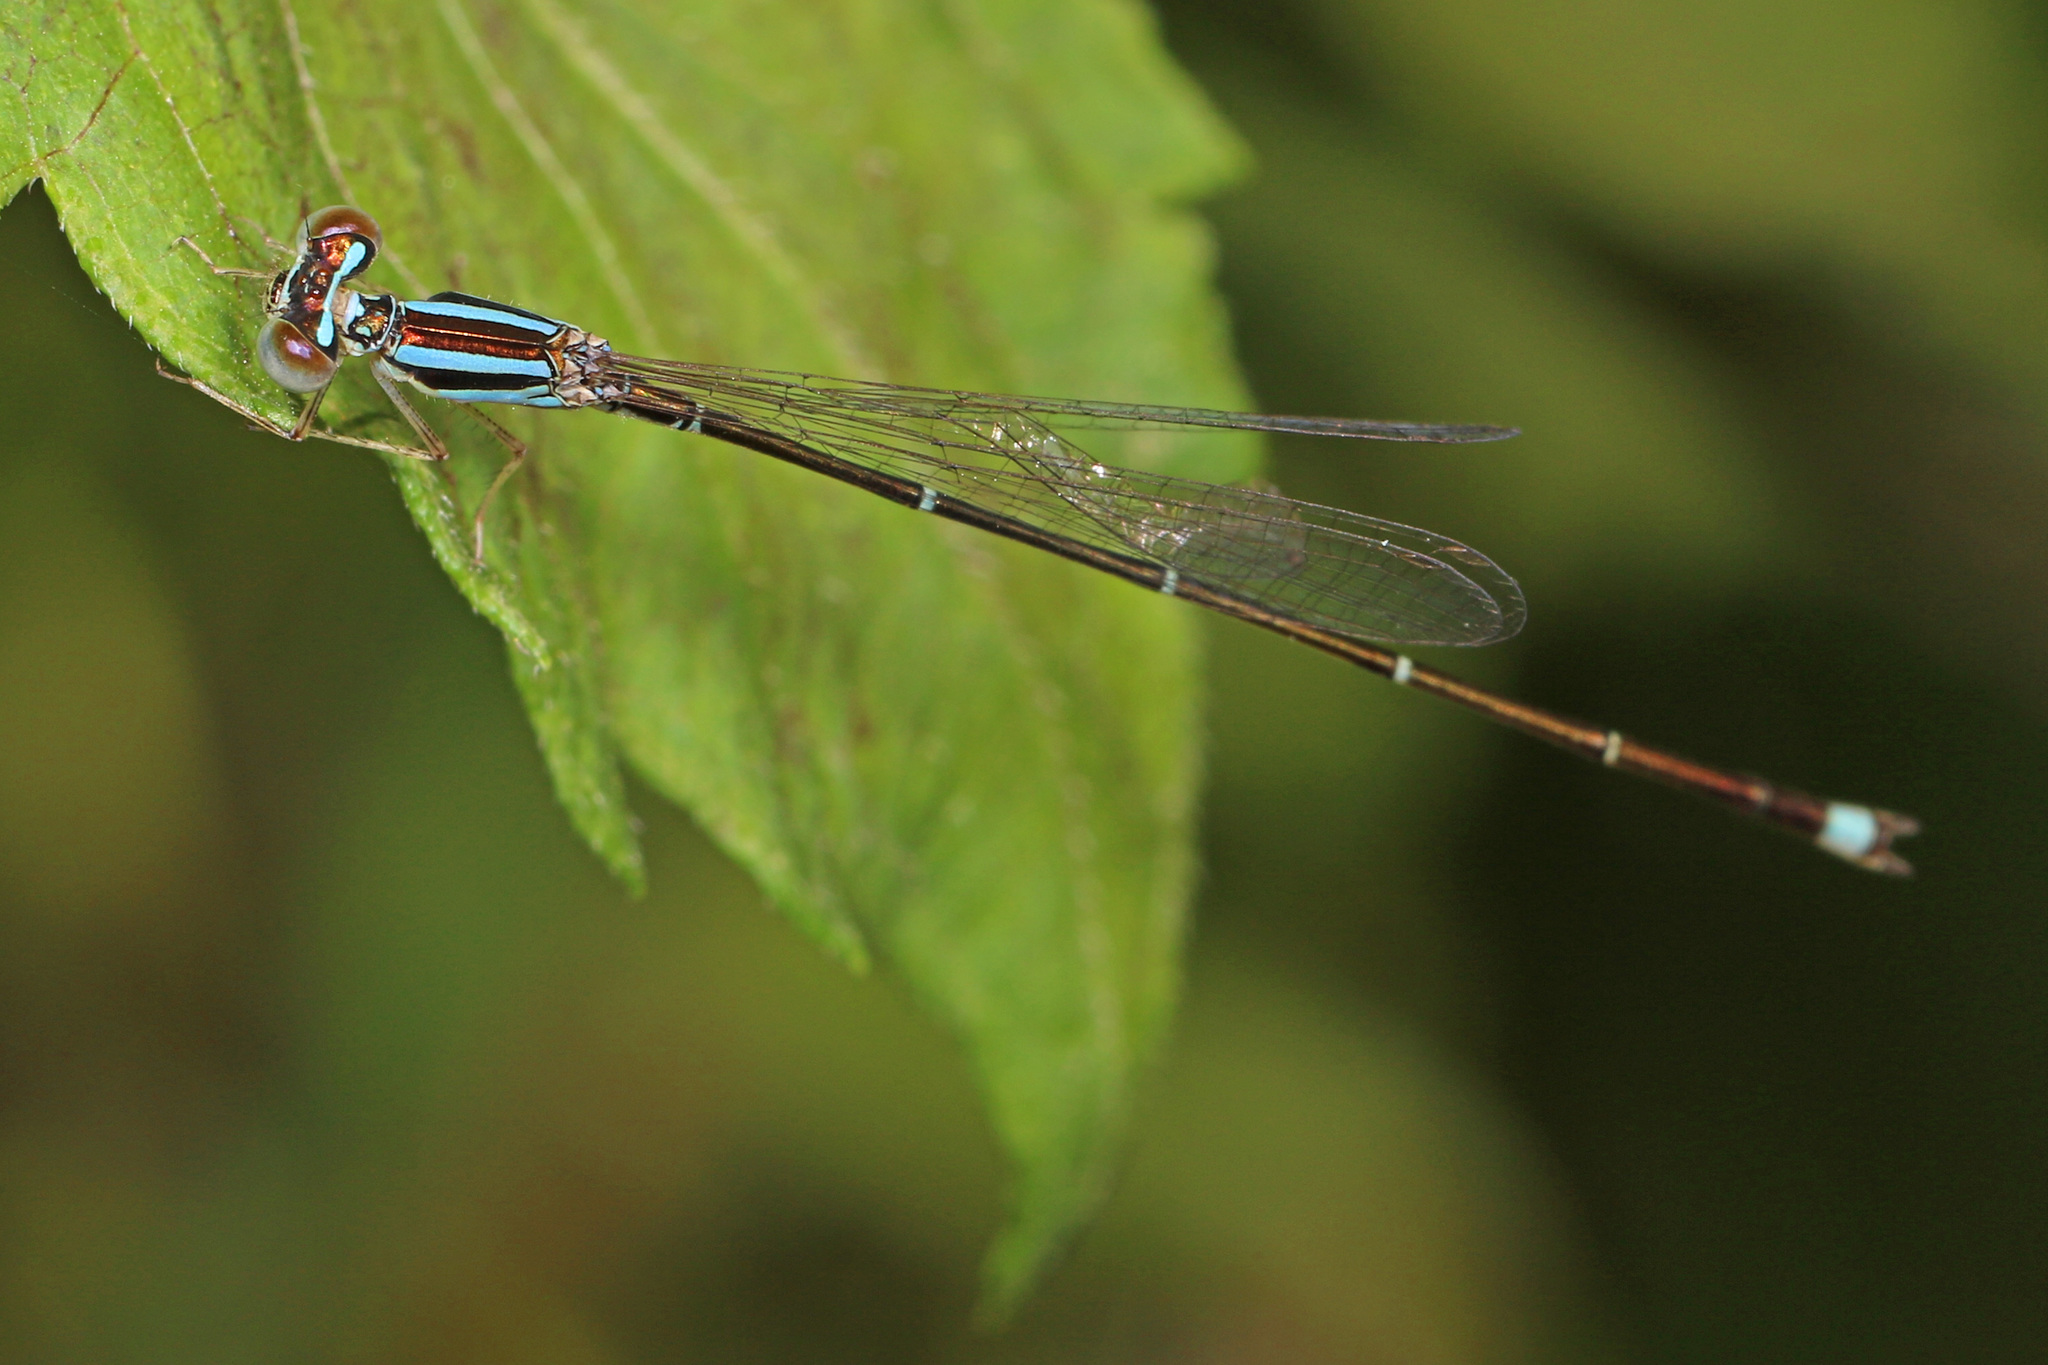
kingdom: Animalia
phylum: Arthropoda
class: Insecta
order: Odonata
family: Coenagrionidae
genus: Enallagma
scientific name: Enallagma signatum
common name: Orange bluet
